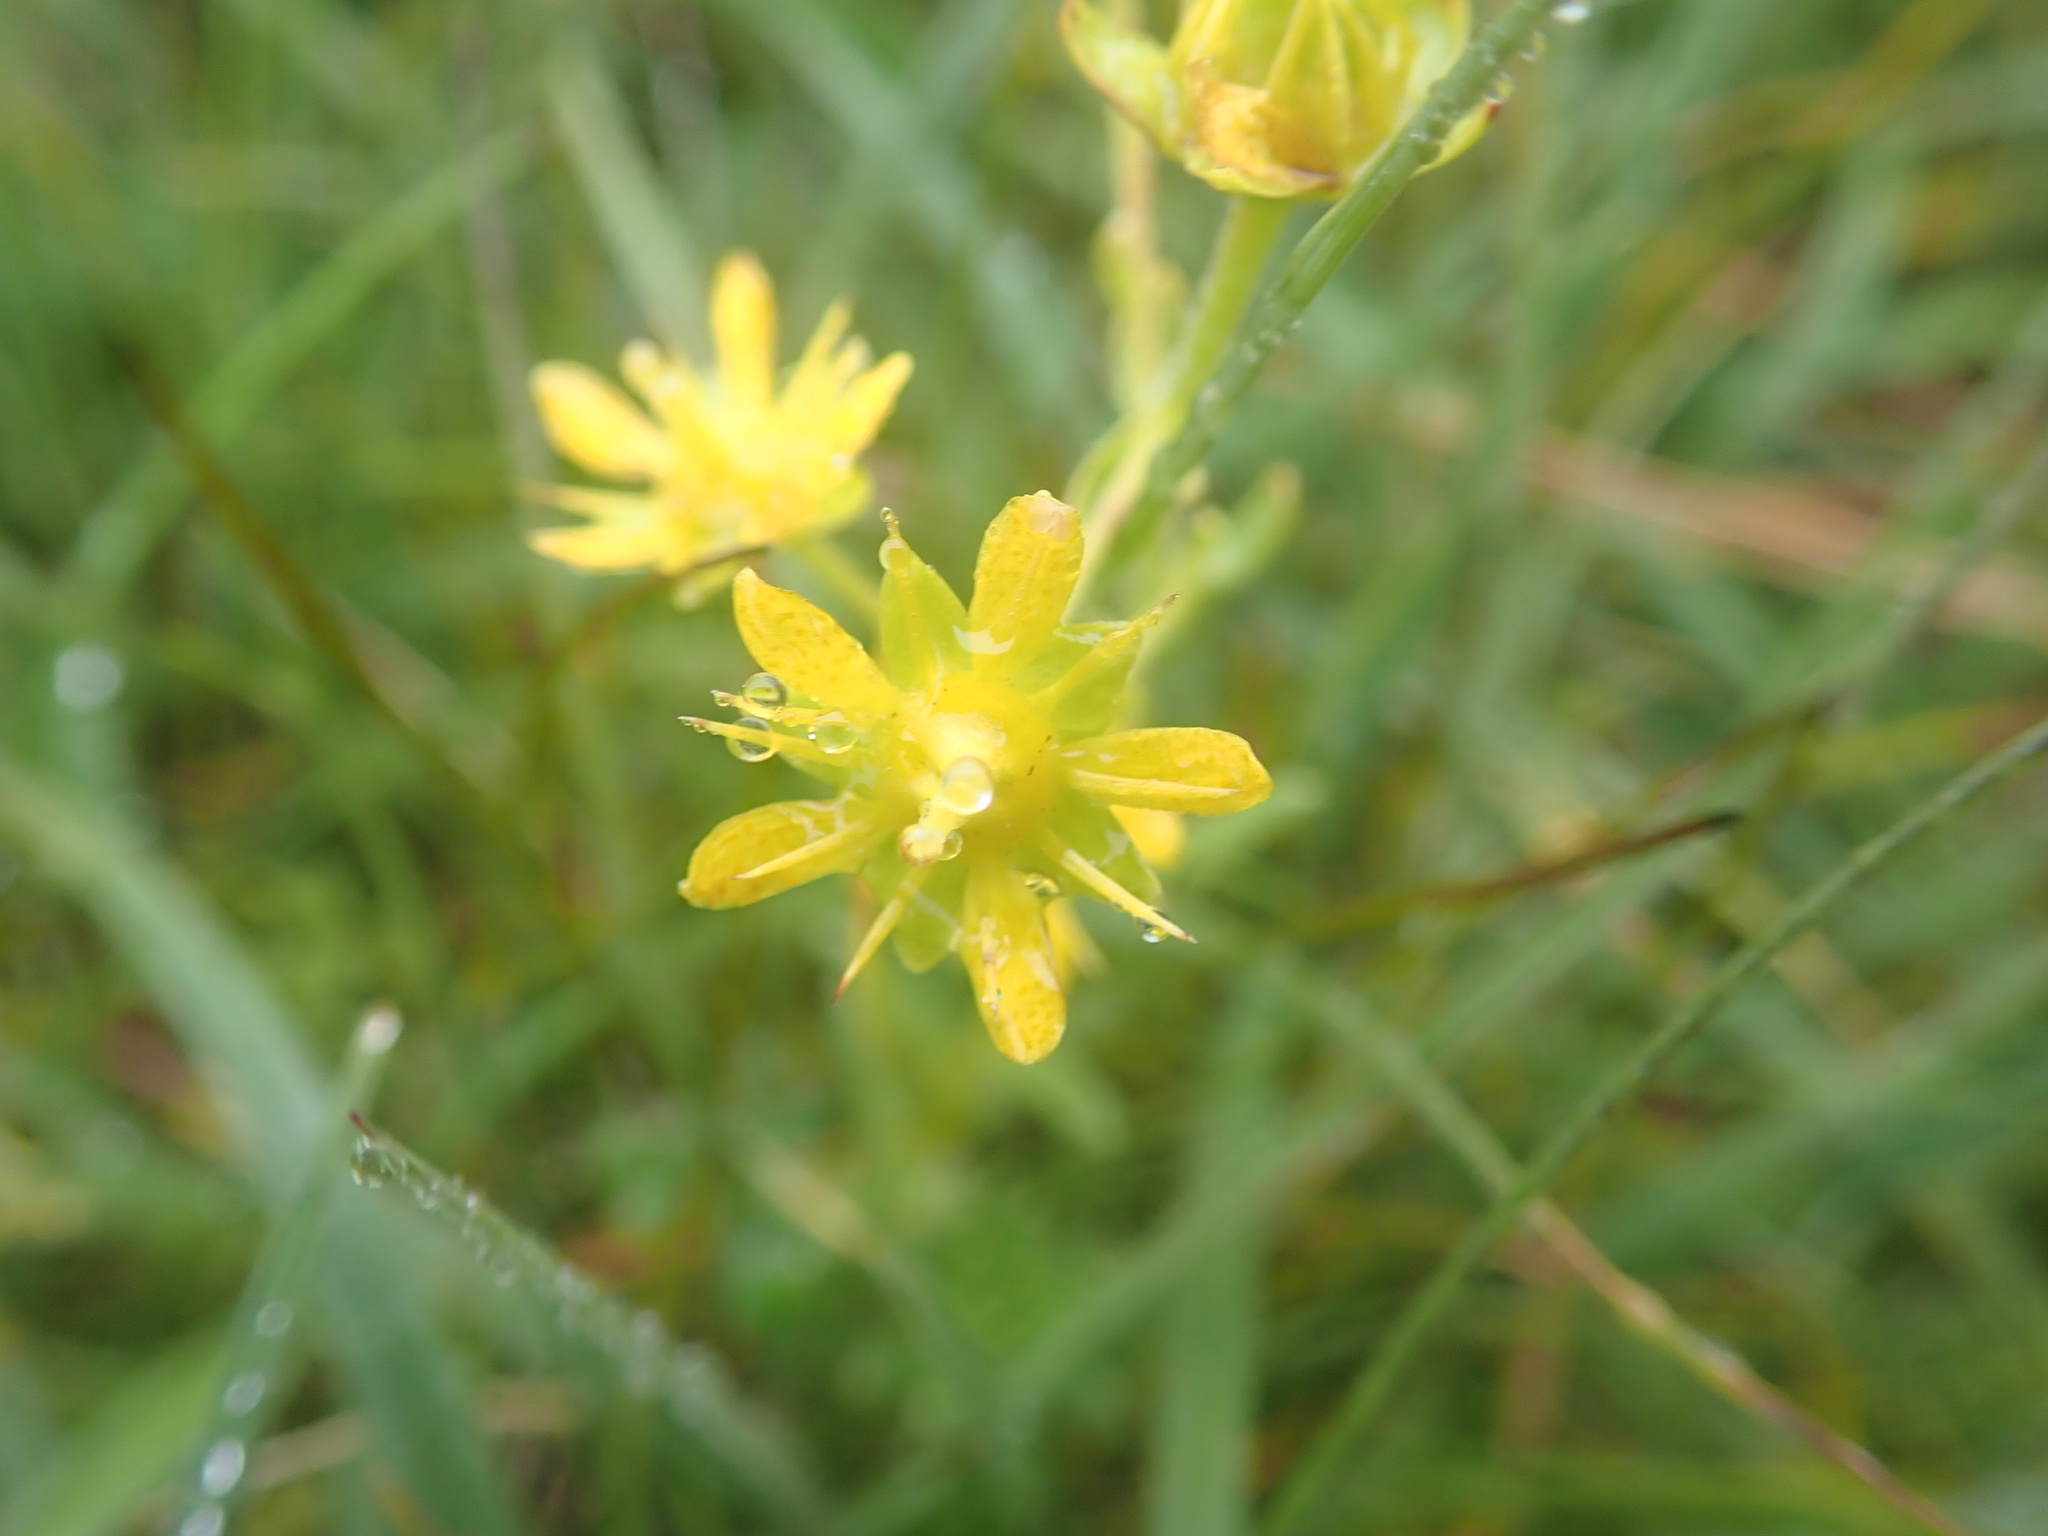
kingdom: Plantae
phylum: Tracheophyta
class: Magnoliopsida
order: Saxifragales
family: Saxifragaceae
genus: Saxifraga
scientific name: Saxifraga aizoides
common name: Yellow mountain saxifrage
